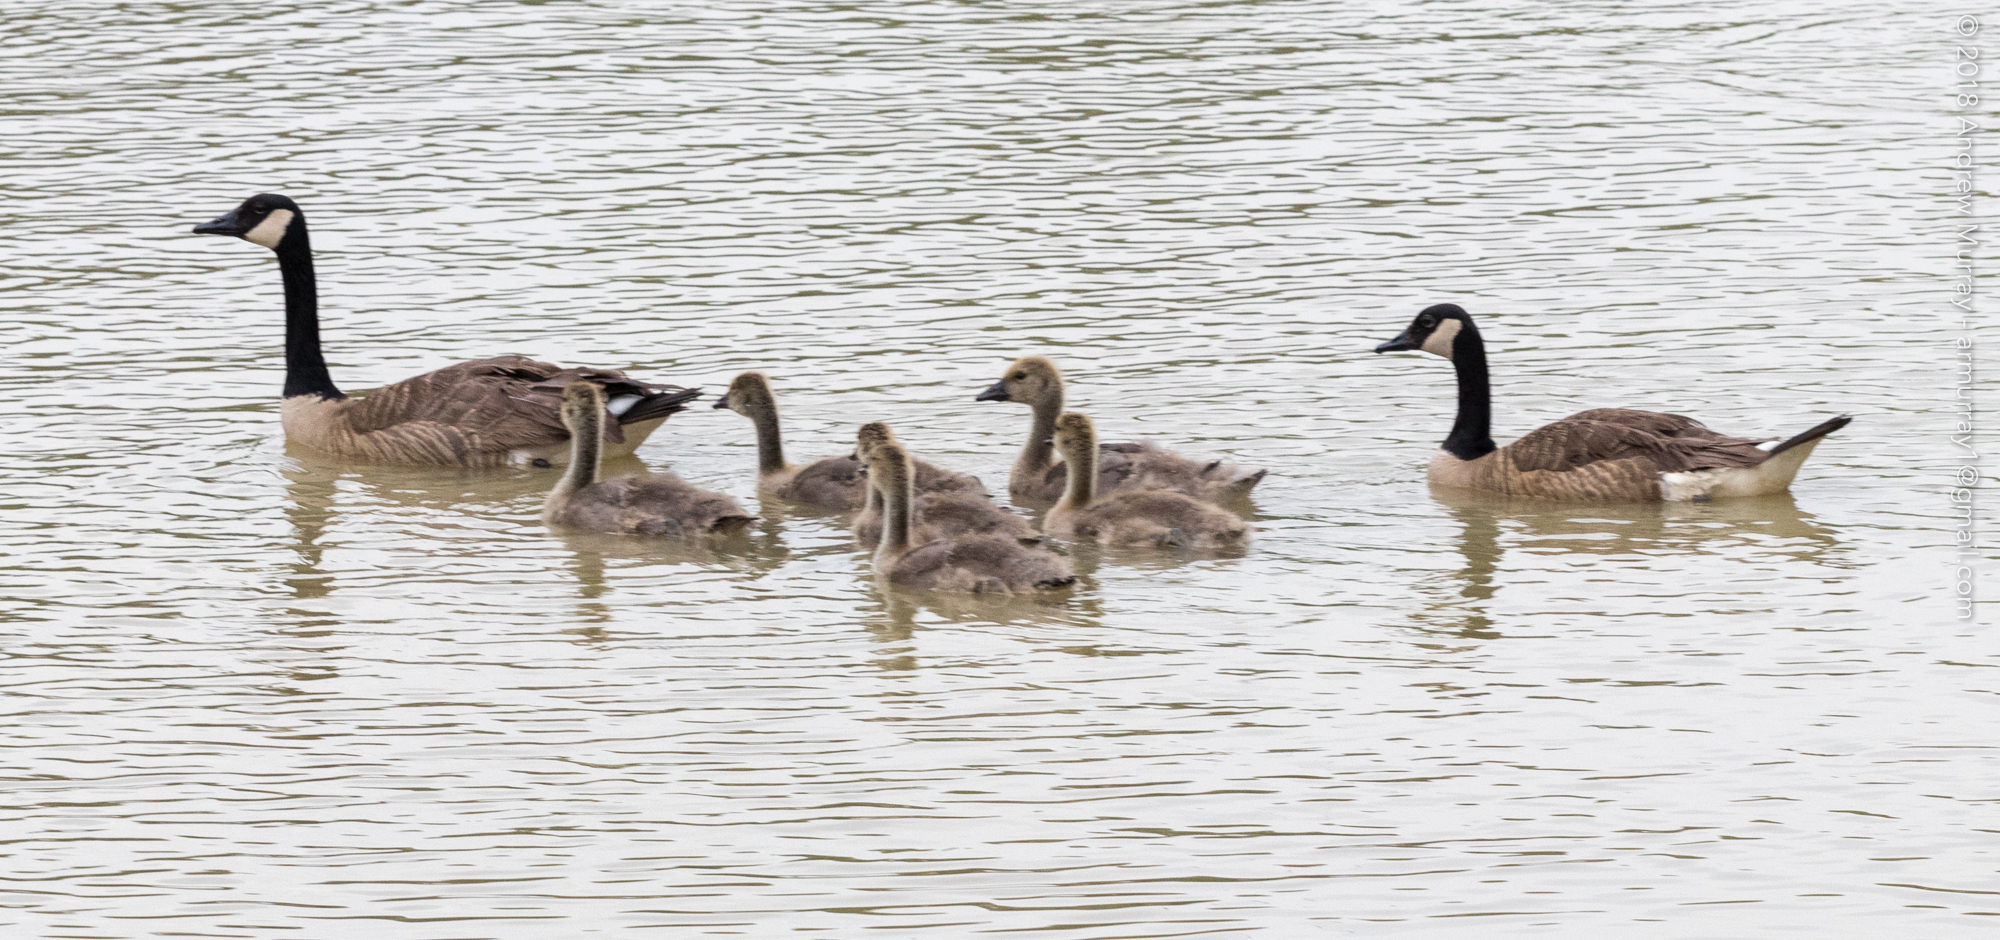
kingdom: Animalia
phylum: Chordata
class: Aves
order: Anseriformes
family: Anatidae
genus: Branta
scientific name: Branta canadensis
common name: Canada goose
